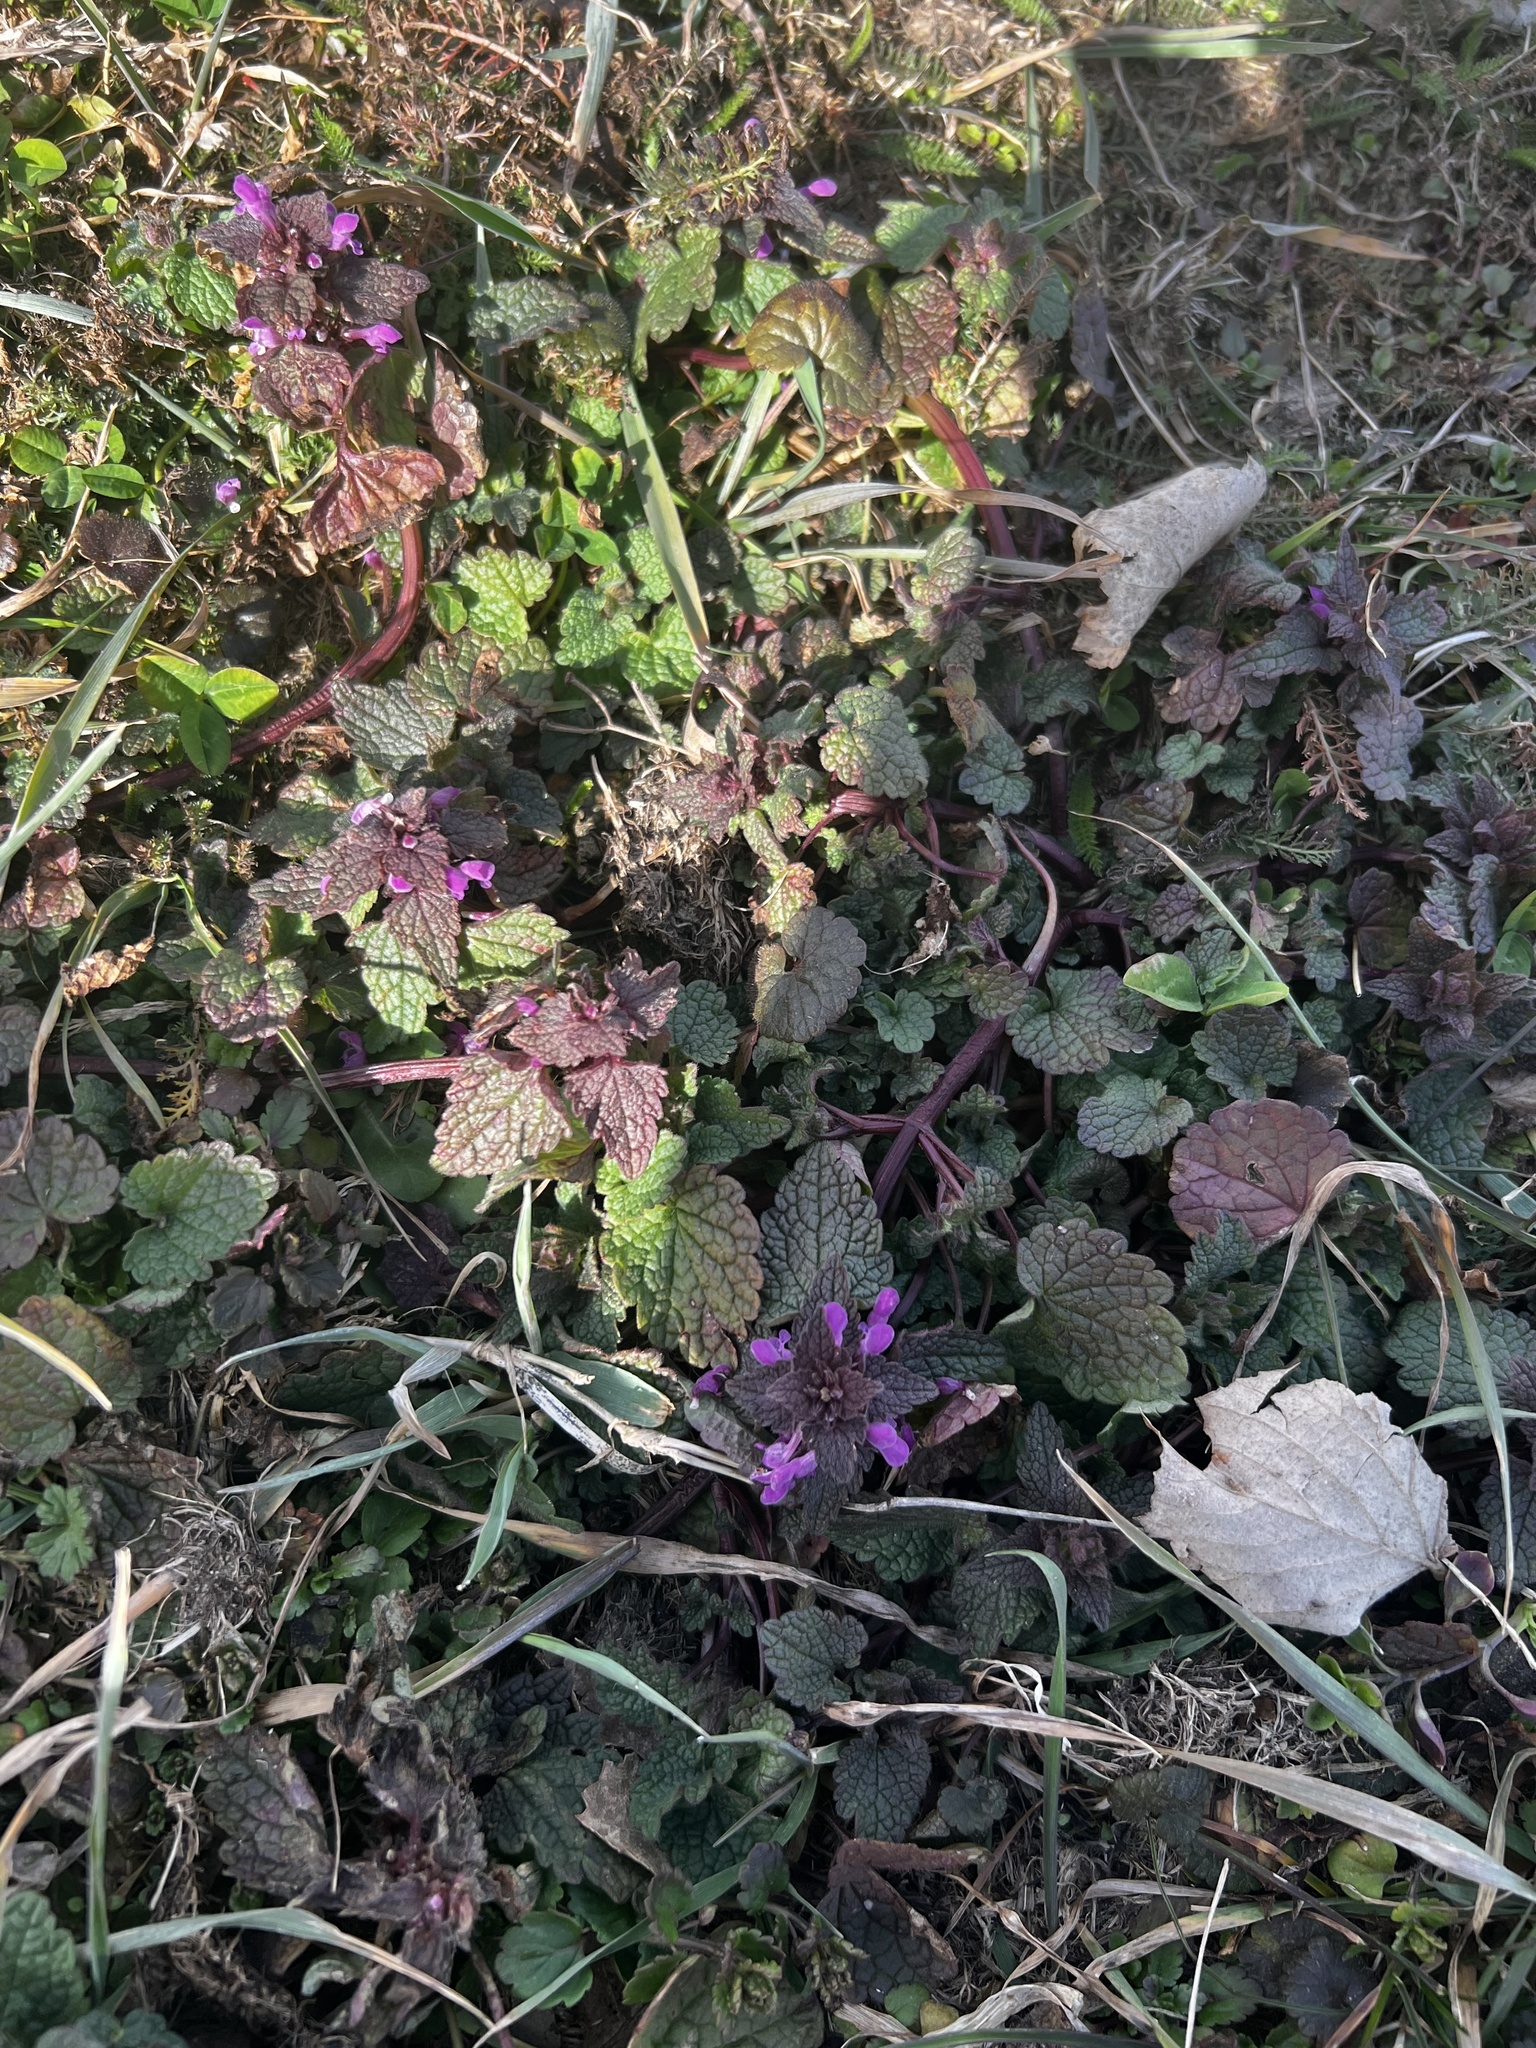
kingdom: Plantae
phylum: Tracheophyta
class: Magnoliopsida
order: Lamiales
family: Lamiaceae
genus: Lamium
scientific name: Lamium purpureum
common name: Red dead-nettle
